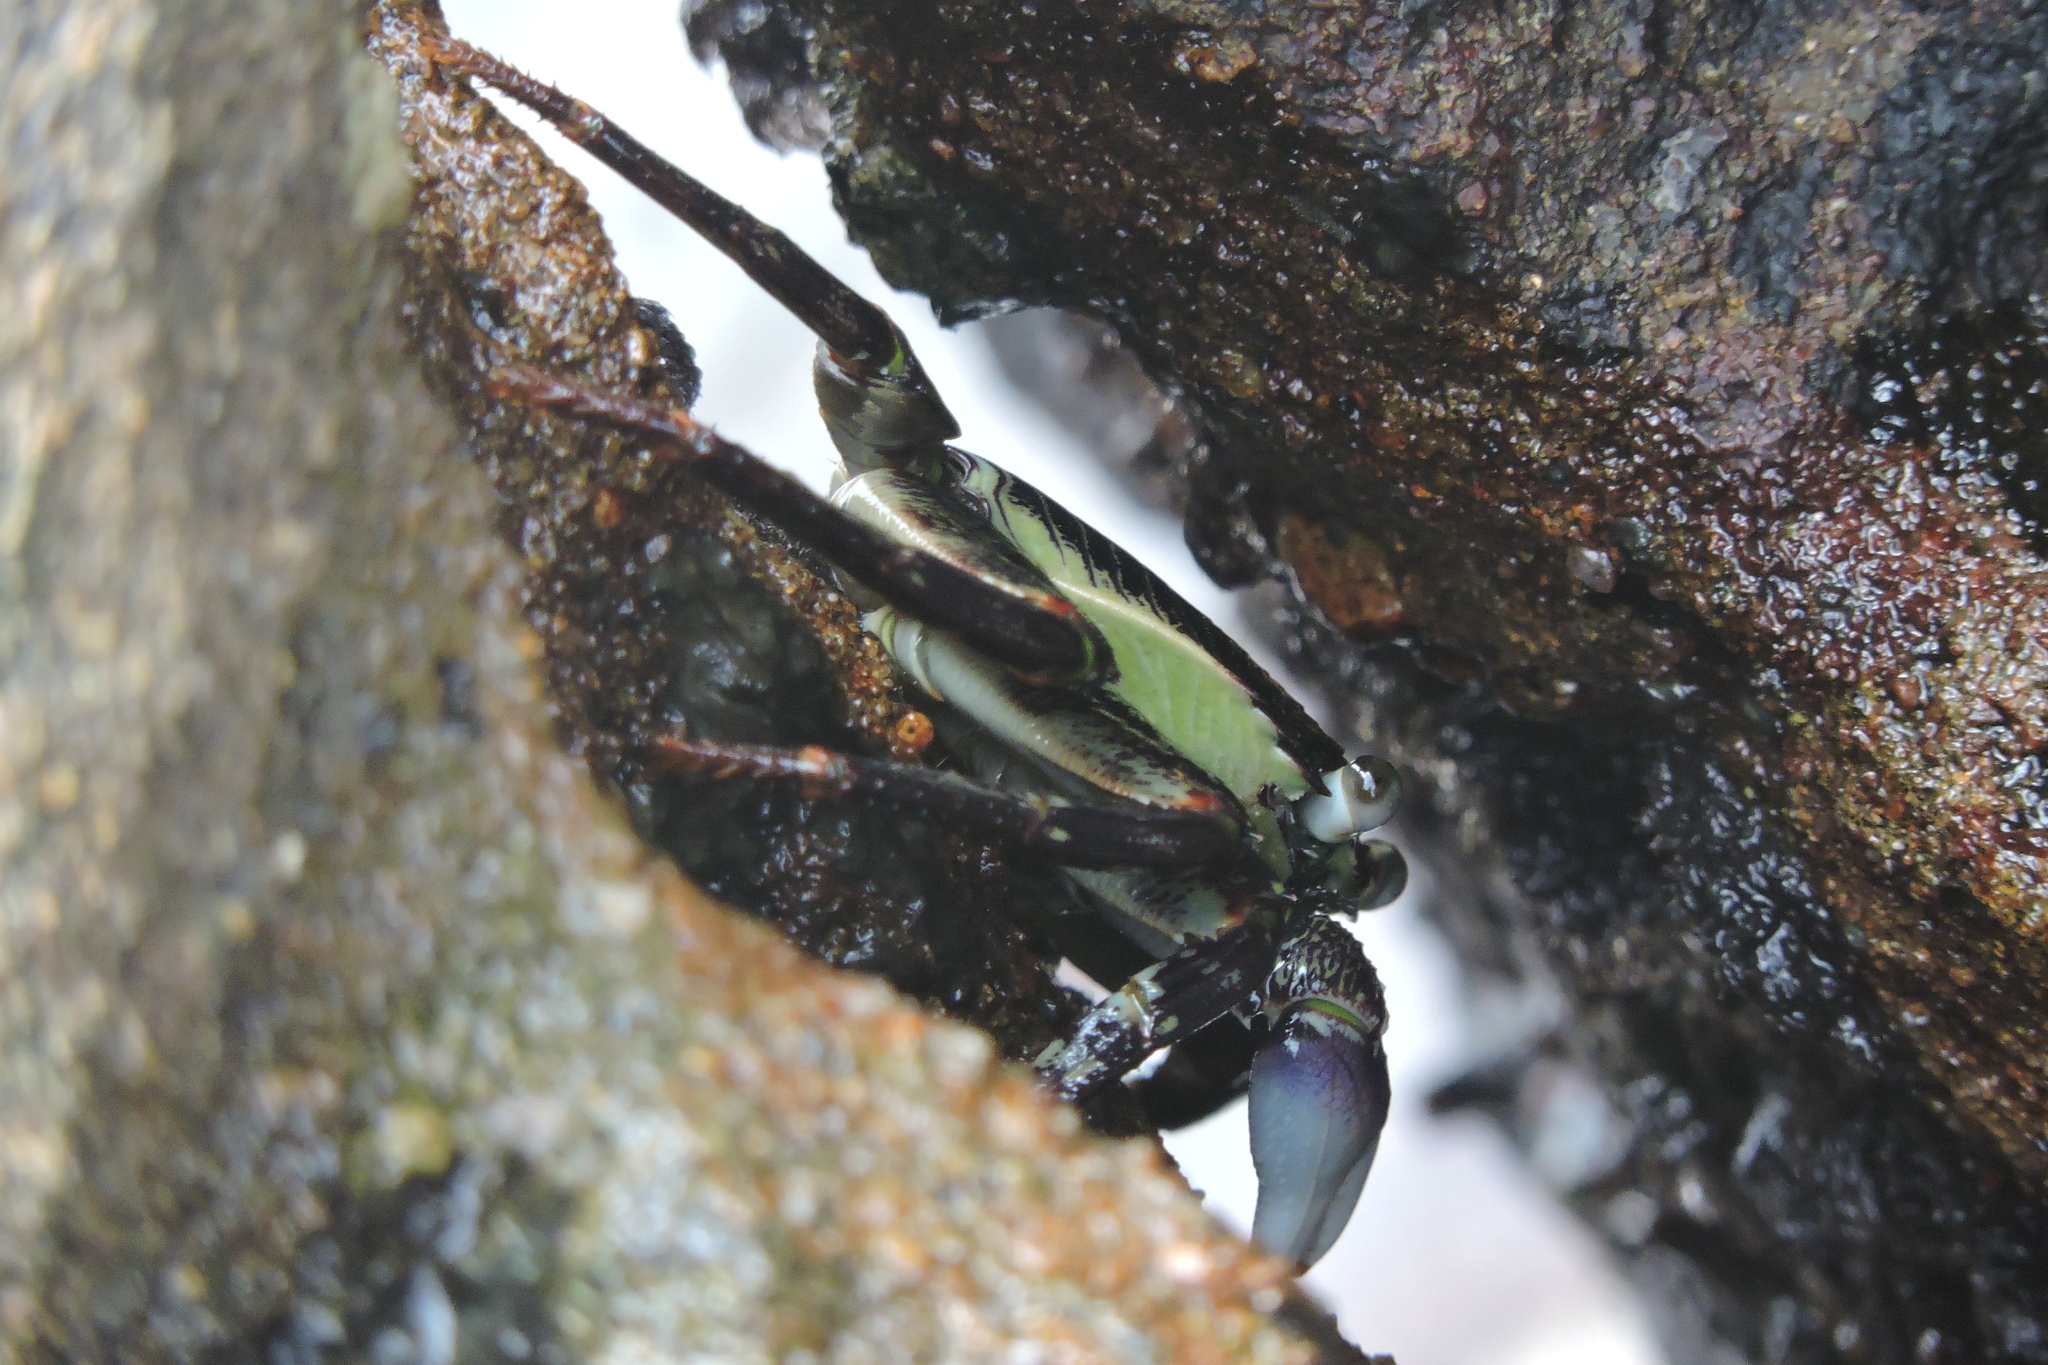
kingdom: Animalia
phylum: Arthropoda
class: Malacostraca
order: Decapoda
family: Grapsidae
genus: Leptograpsus
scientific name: Leptograpsus variegatus
